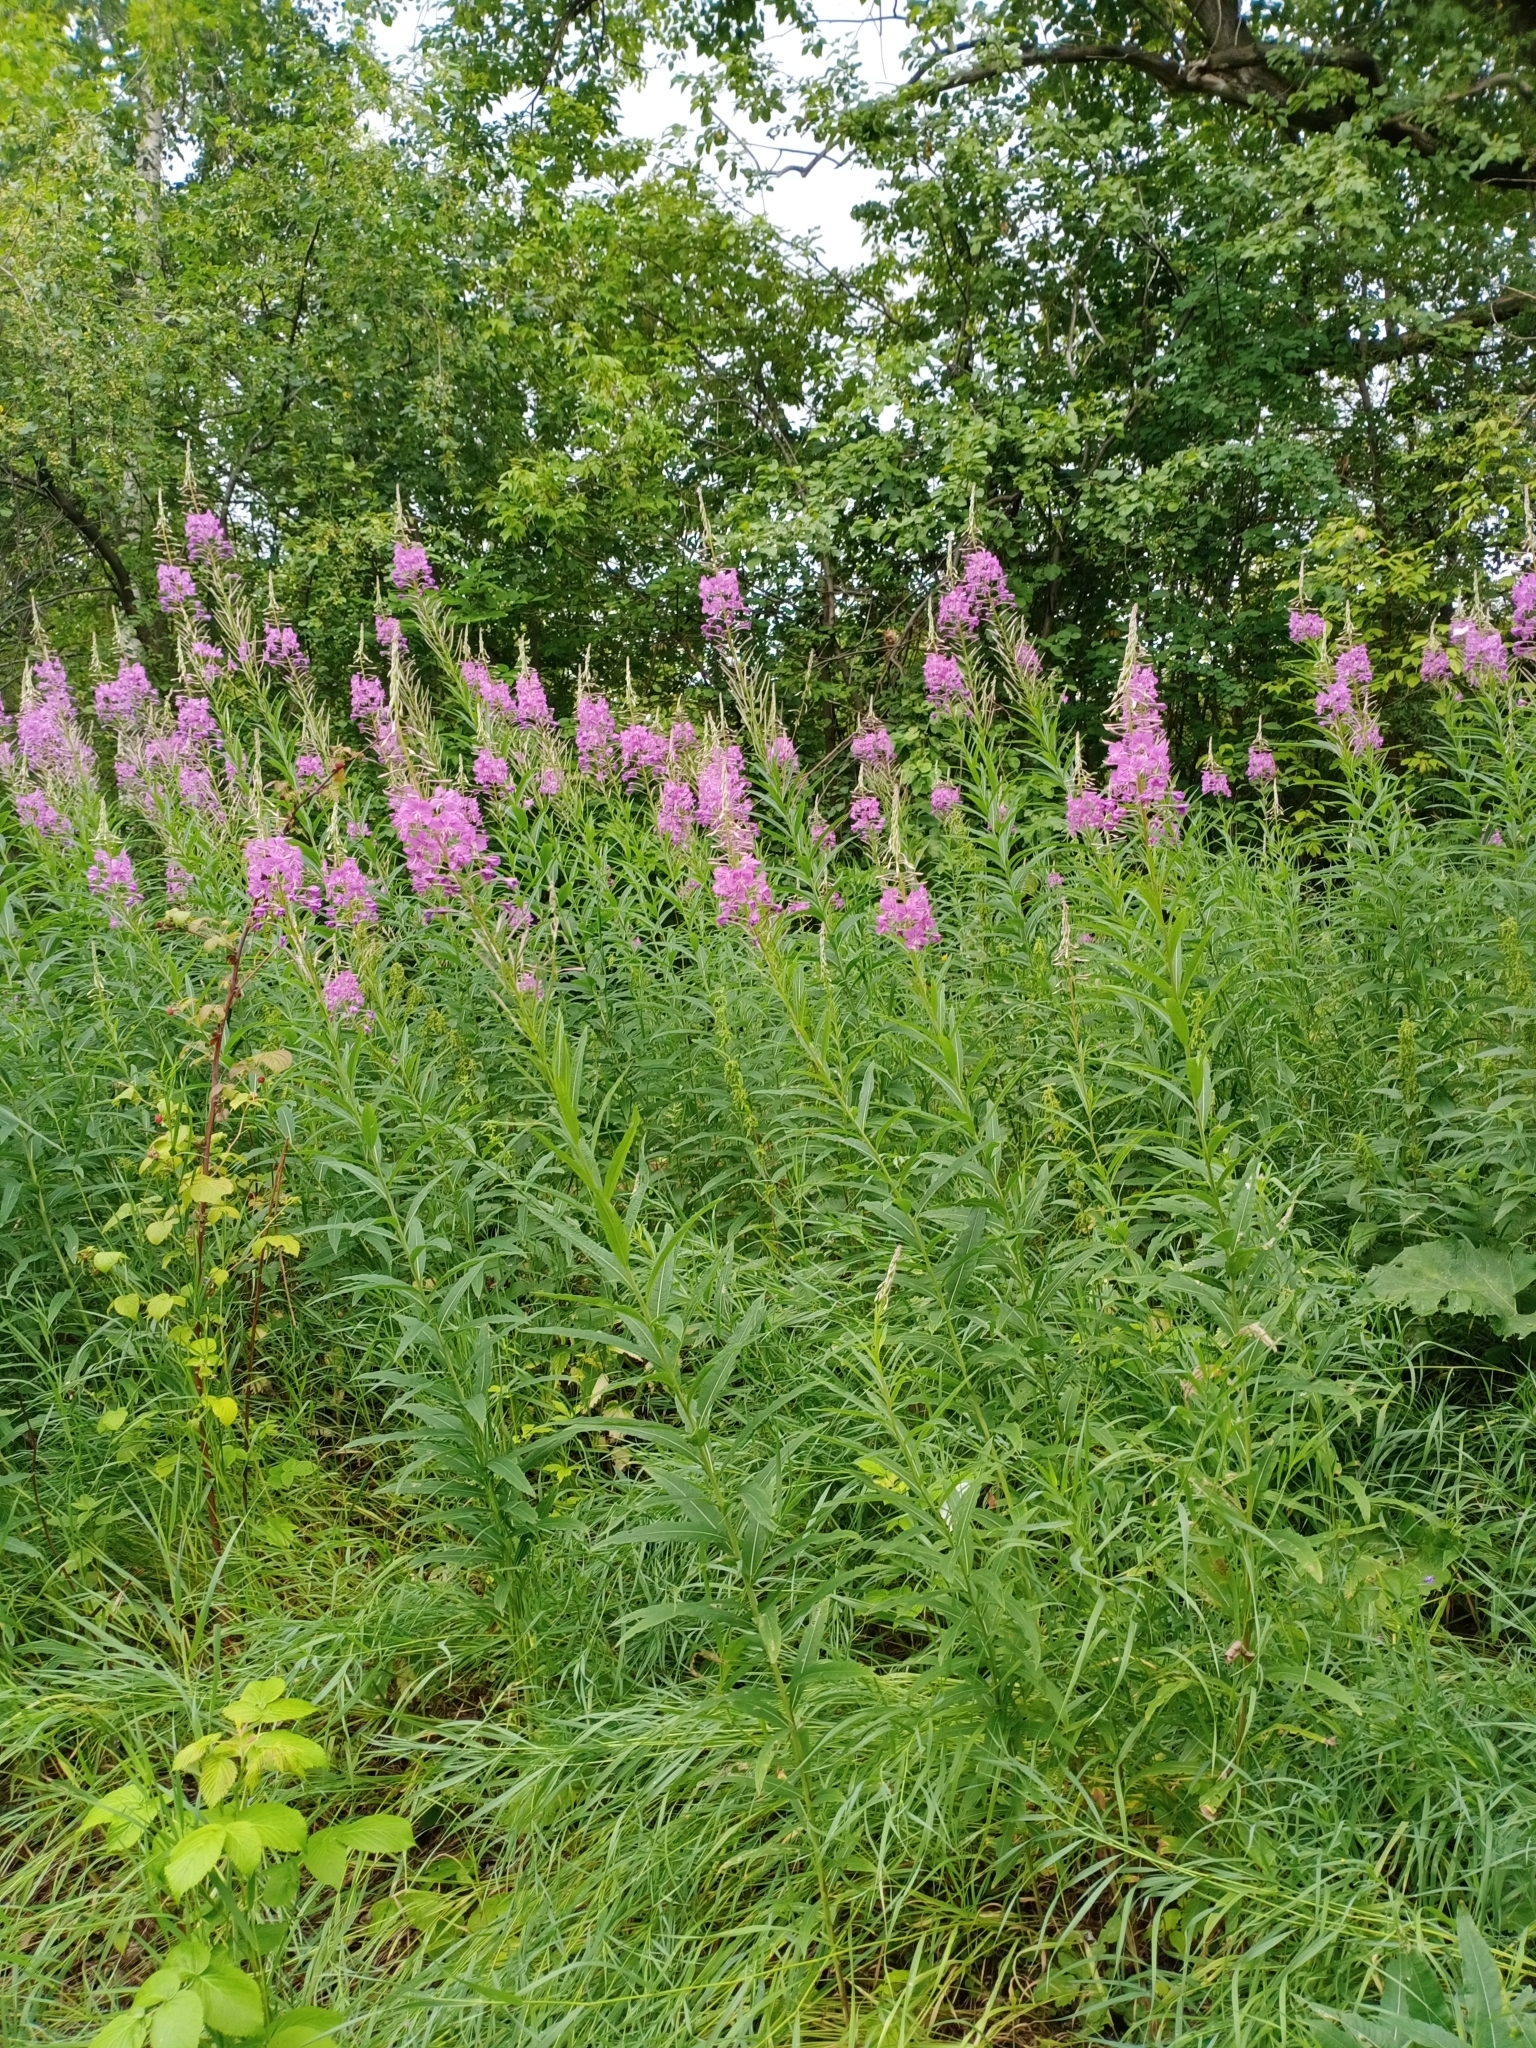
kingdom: Plantae
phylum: Tracheophyta
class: Magnoliopsida
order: Myrtales
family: Onagraceae
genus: Chamaenerion
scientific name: Chamaenerion angustifolium
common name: Fireweed
